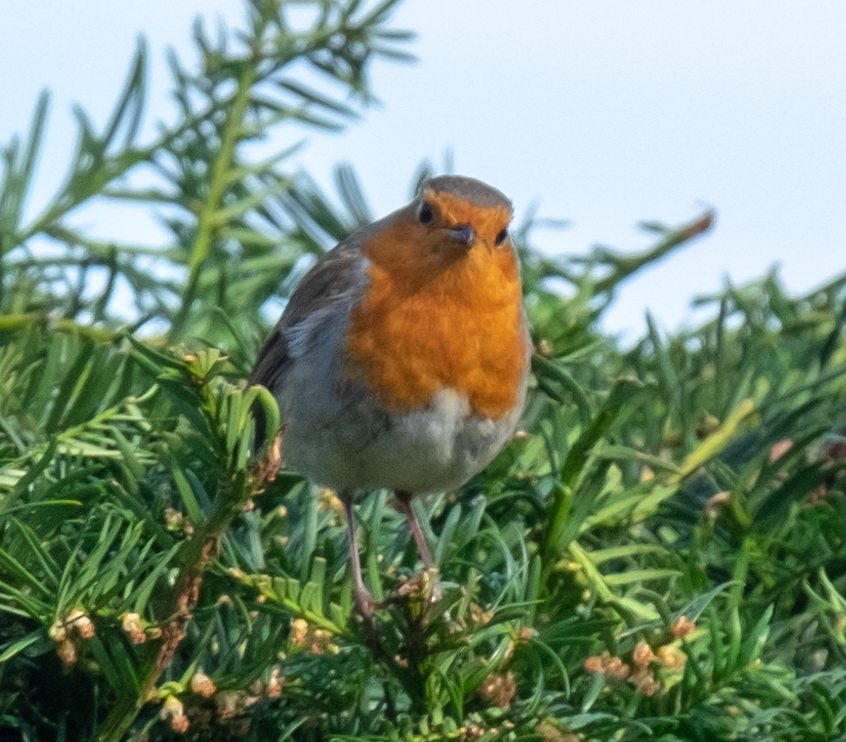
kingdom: Animalia
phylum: Chordata
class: Aves
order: Passeriformes
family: Muscicapidae
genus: Erithacus
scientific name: Erithacus rubecula
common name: European robin
